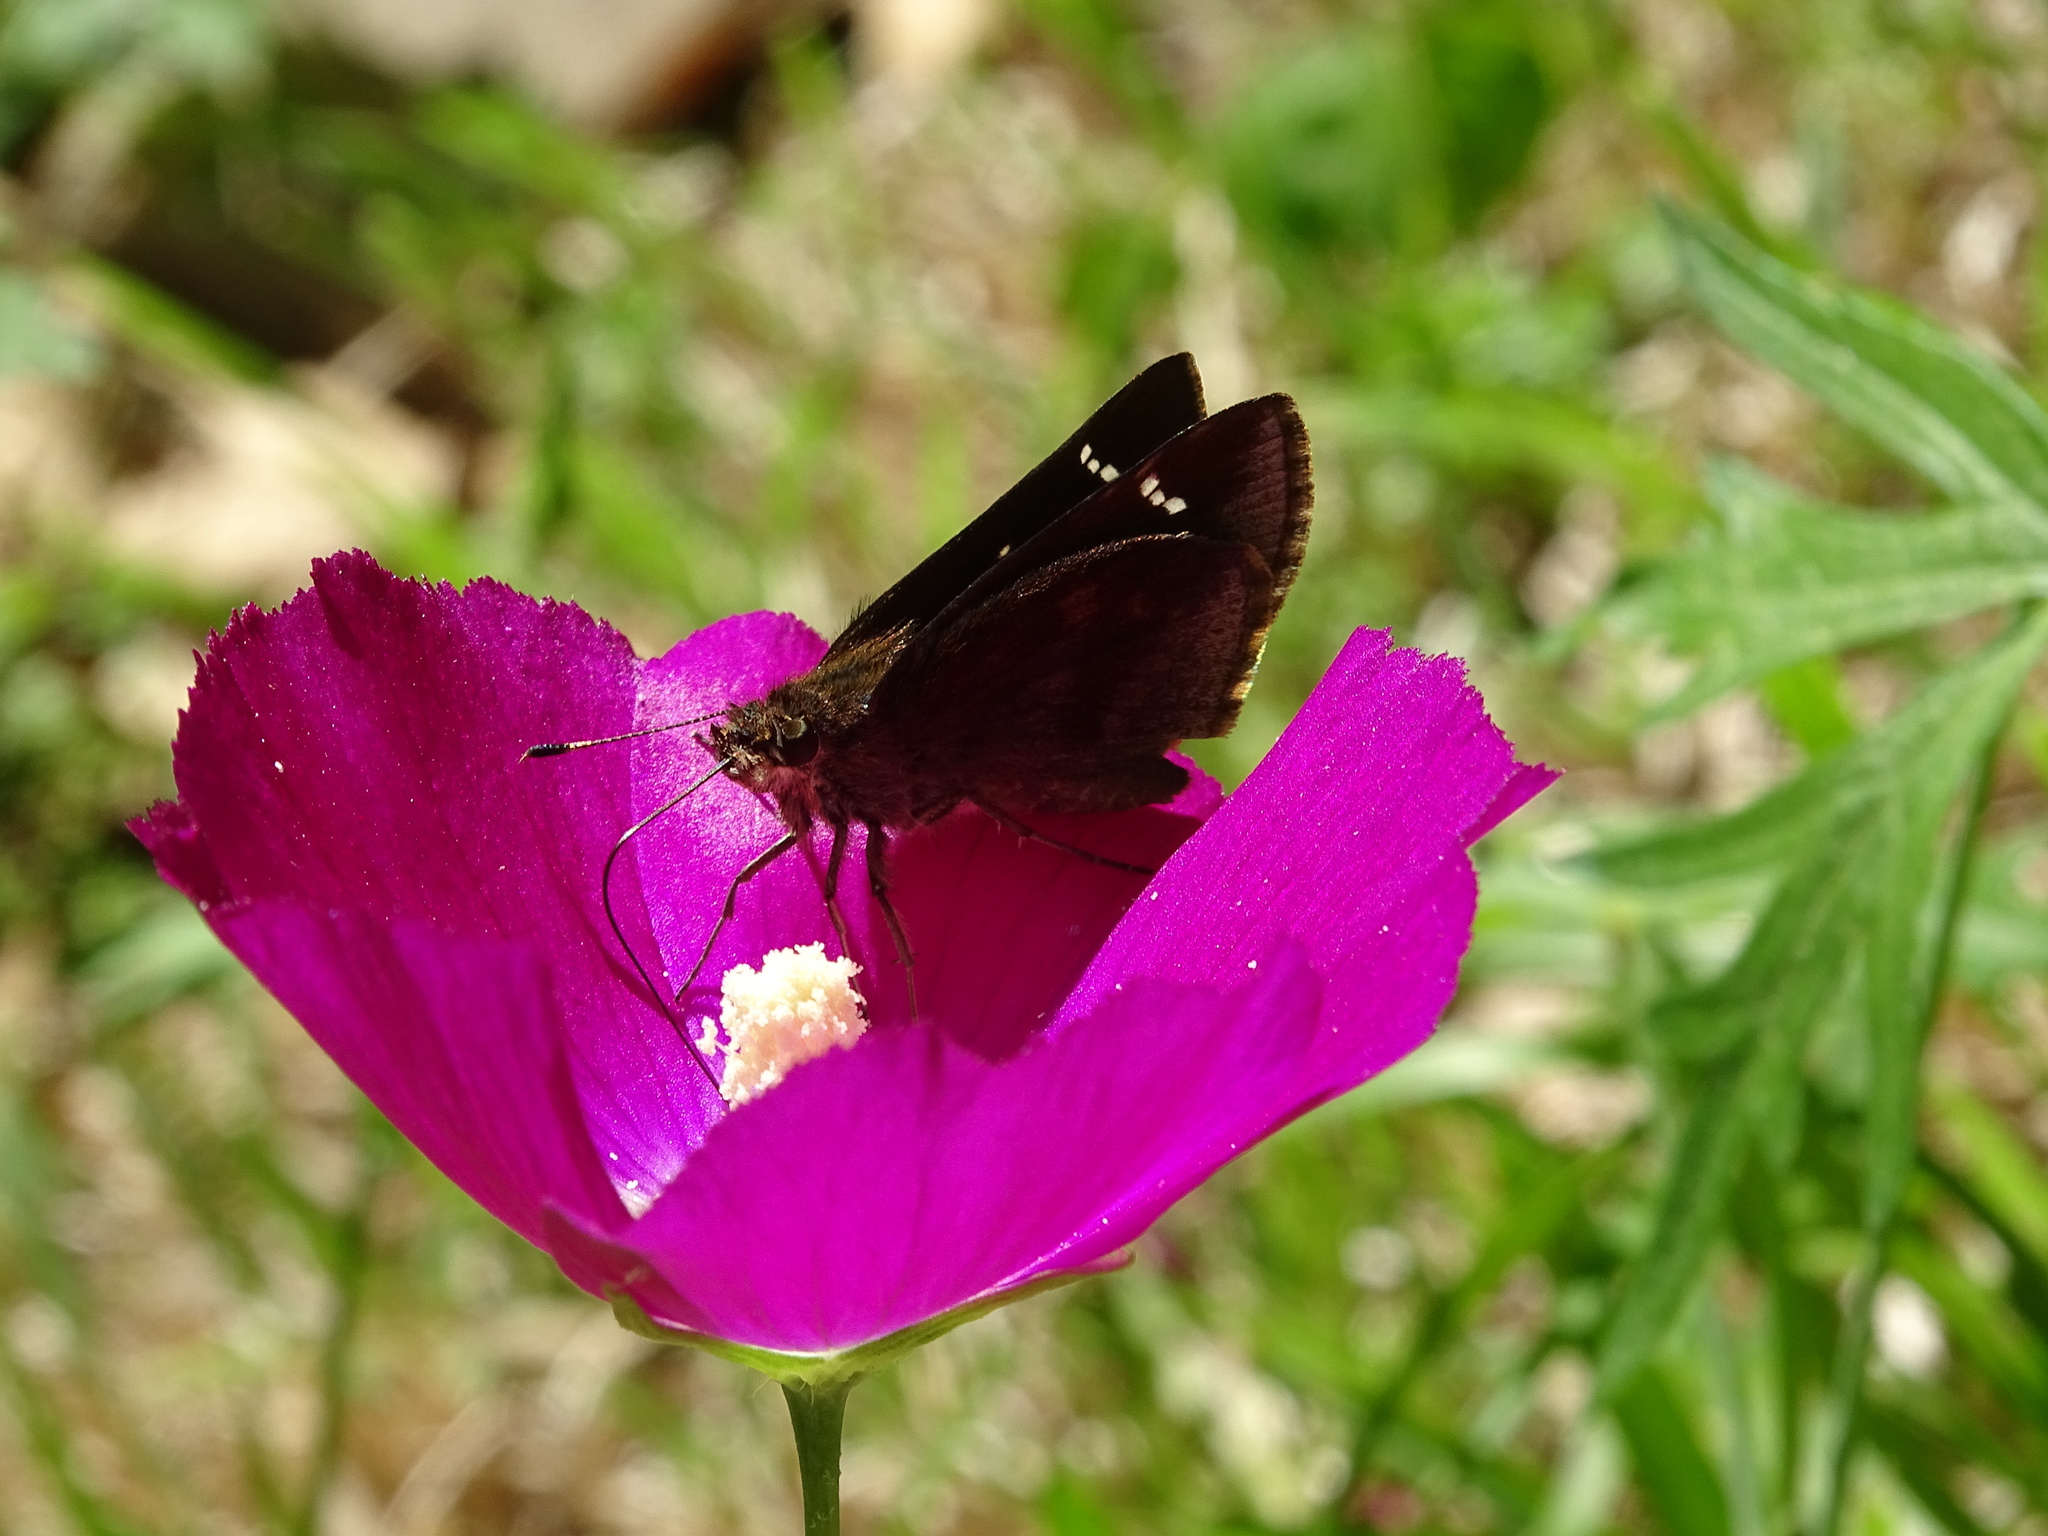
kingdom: Animalia
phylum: Arthropoda
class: Insecta
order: Lepidoptera
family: Hesperiidae
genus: Erynnis
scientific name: Erynnis funeralis
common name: Funereal duskywing
